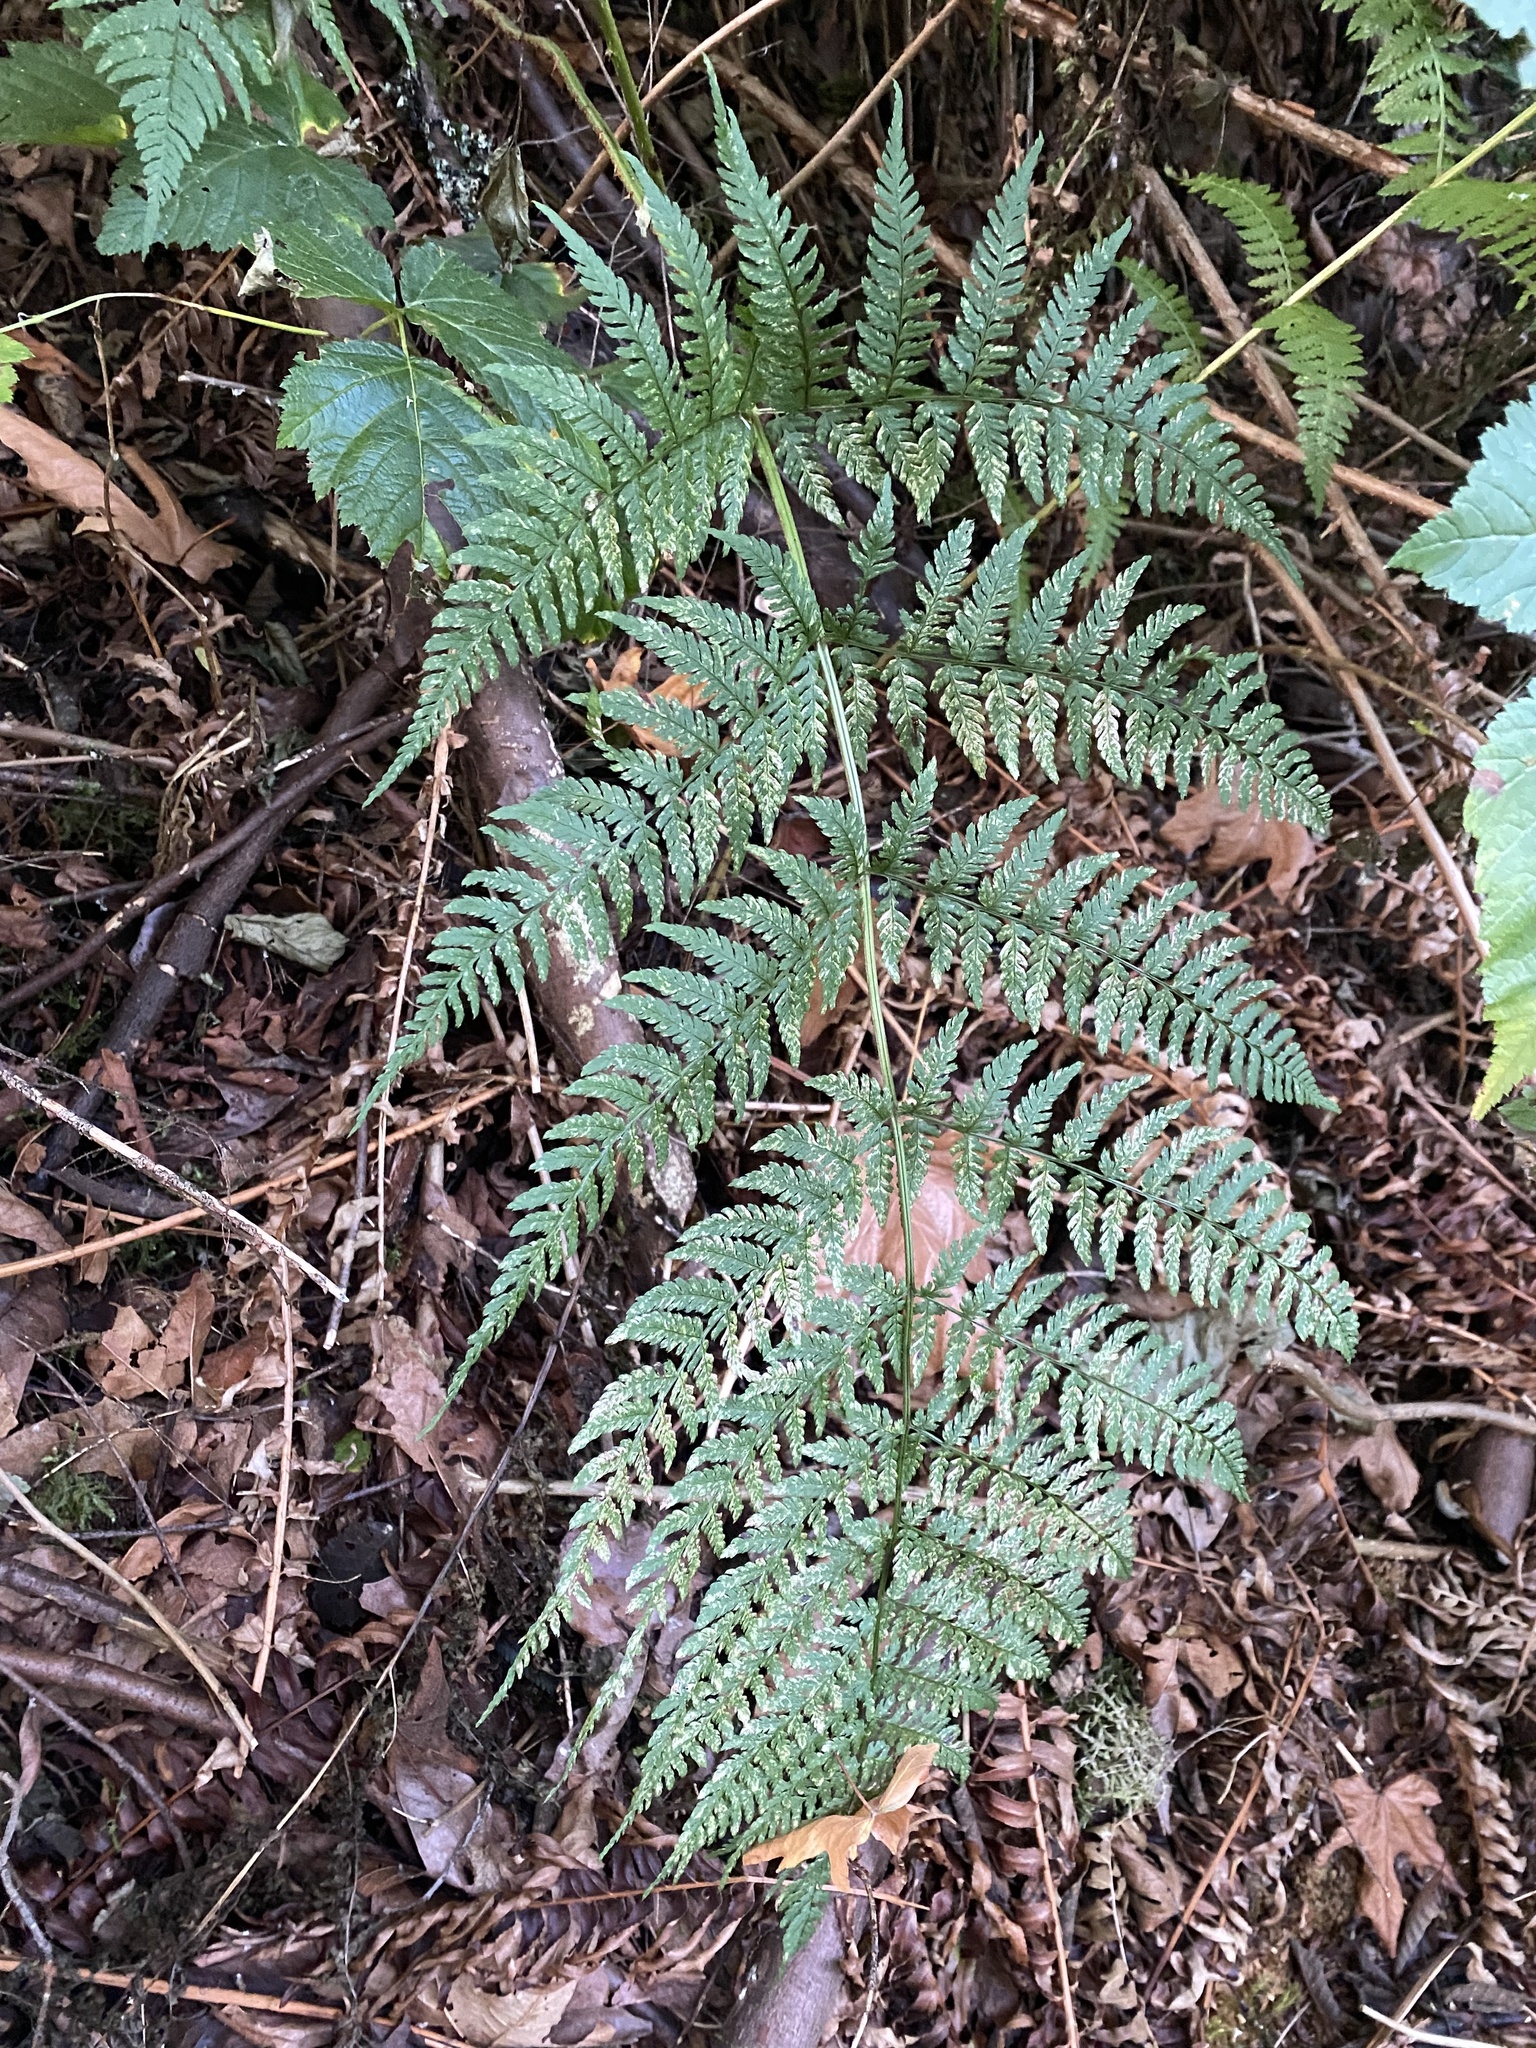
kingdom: Plantae
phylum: Tracheophyta
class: Polypodiopsida
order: Polypodiales
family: Dryopteridaceae
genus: Dryopteris
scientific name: Dryopteris expansa
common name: Northern buckler fern
